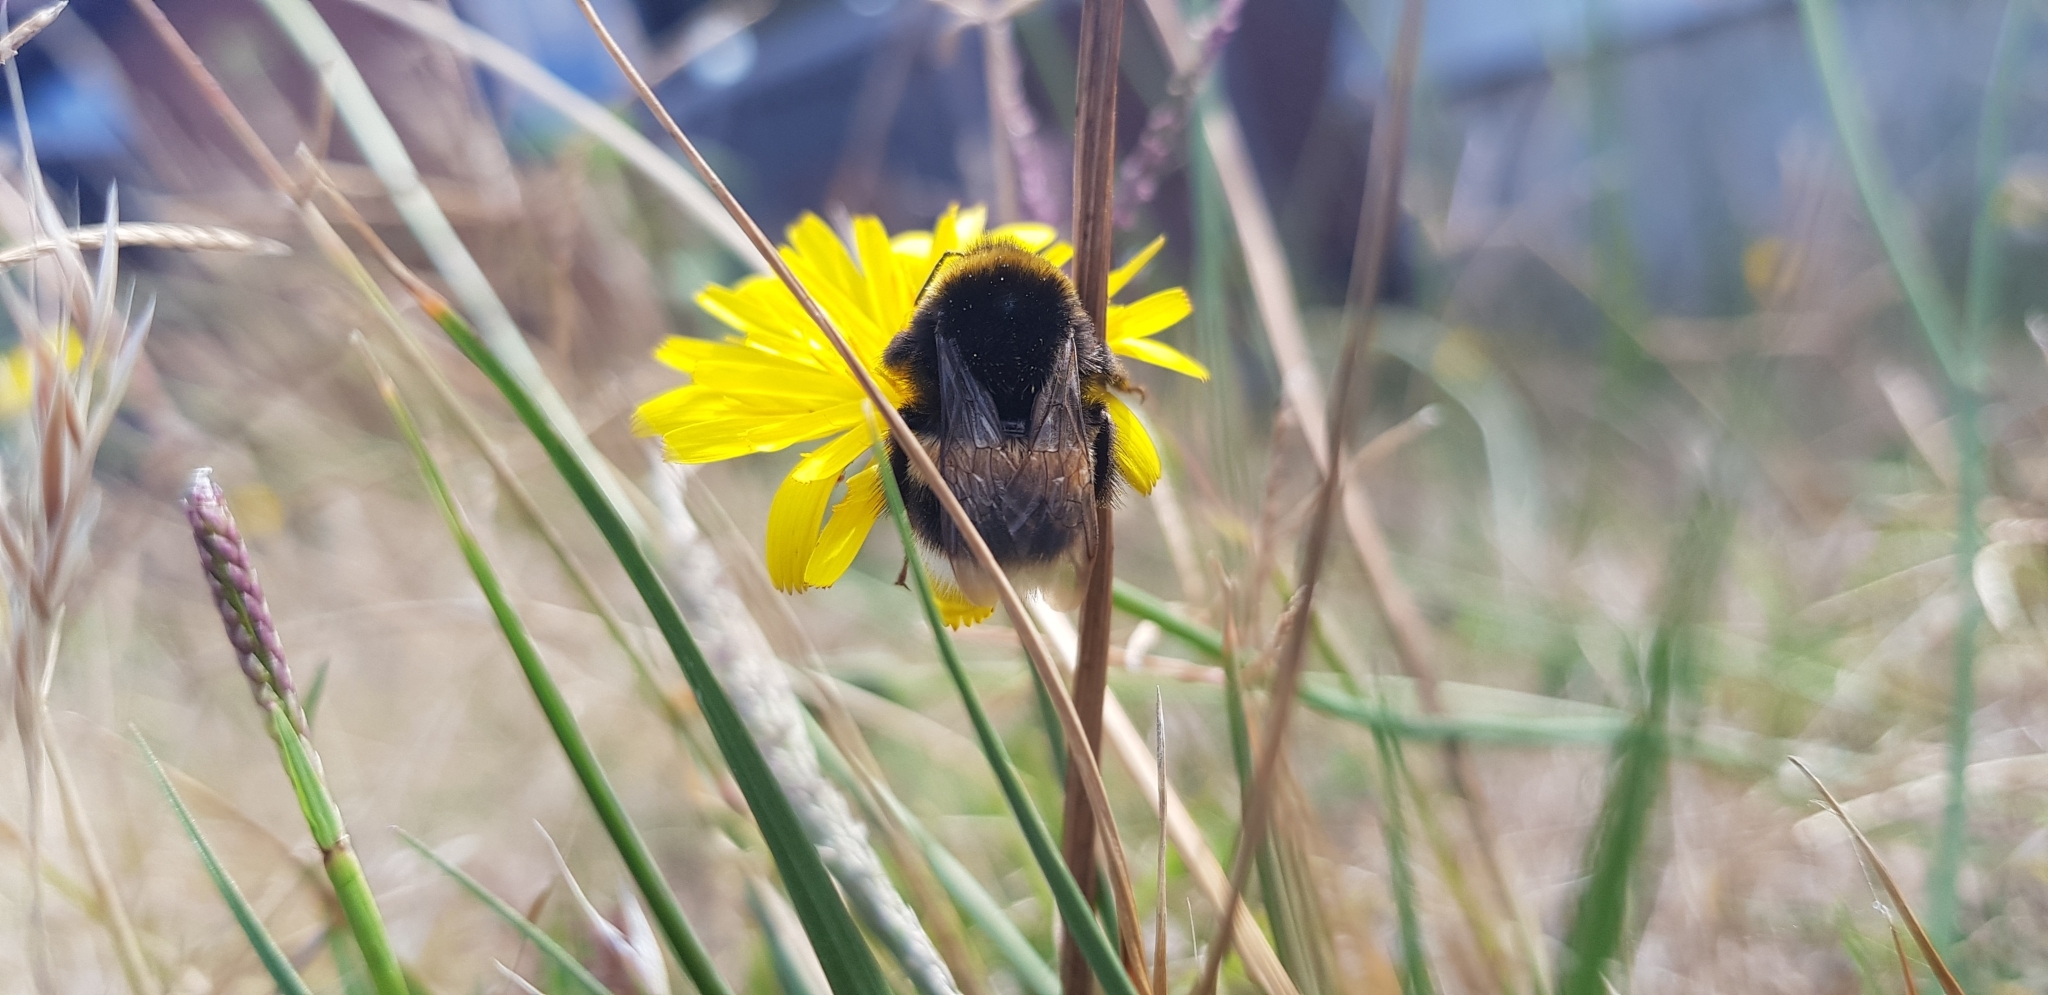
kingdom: Animalia
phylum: Arthropoda
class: Insecta
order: Hymenoptera
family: Apidae
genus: Bombus
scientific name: Bombus terrestris
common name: Buff-tailed bumblebee
